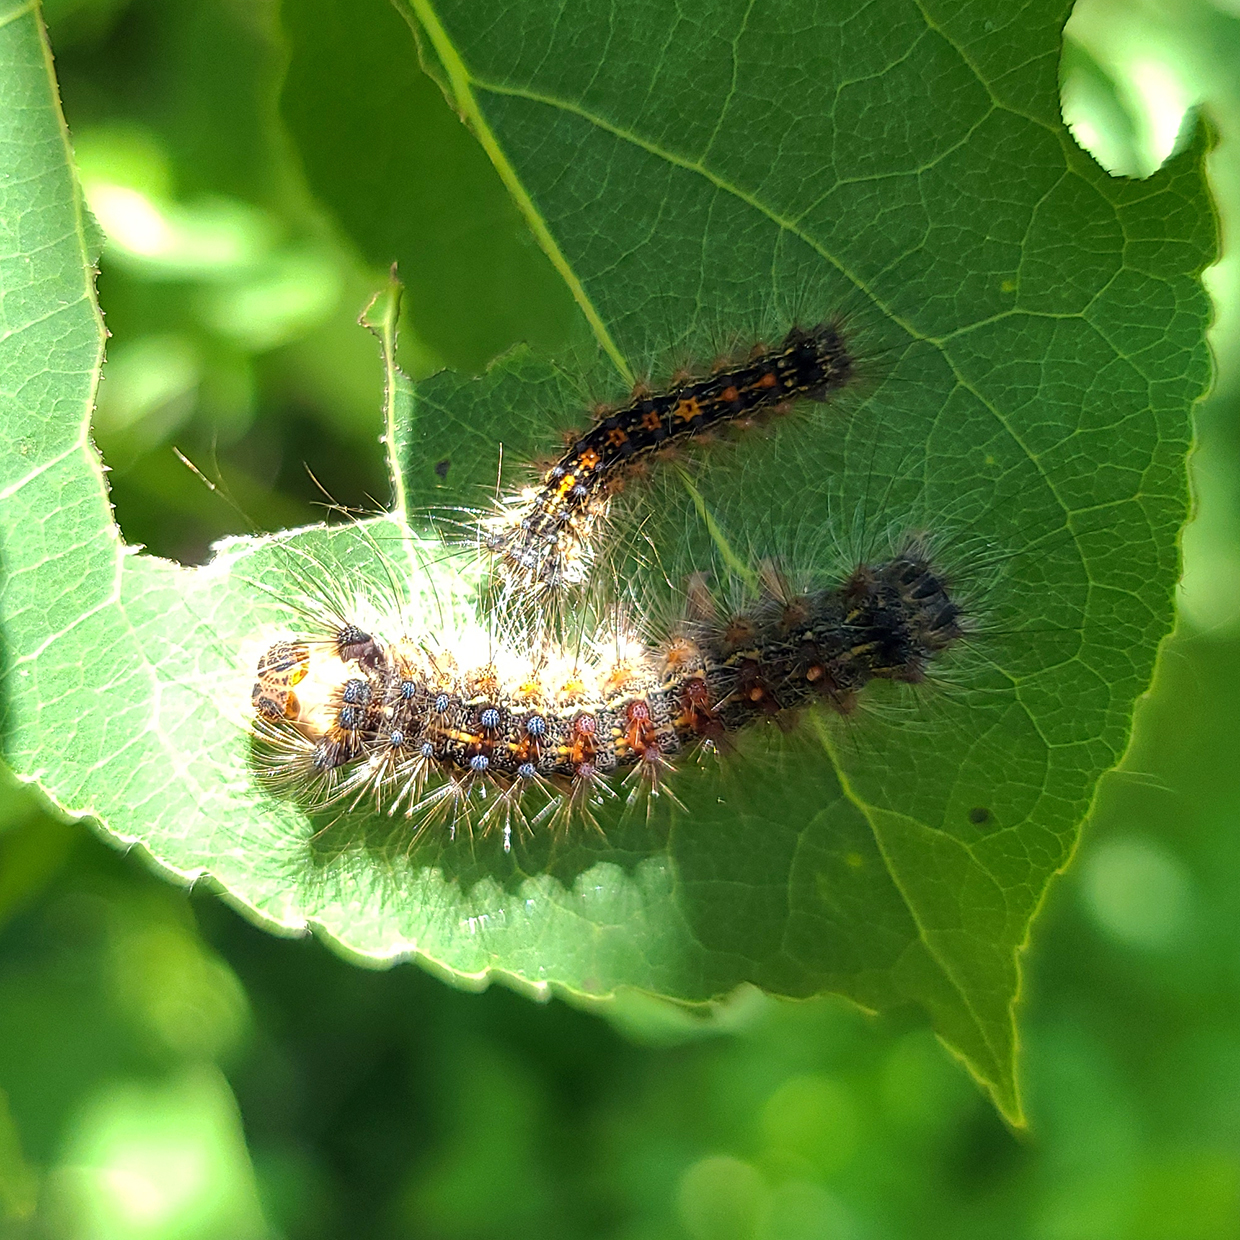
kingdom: Animalia
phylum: Arthropoda
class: Insecta
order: Lepidoptera
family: Erebidae
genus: Lymantria
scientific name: Lymantria dispar
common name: Gypsy moth
